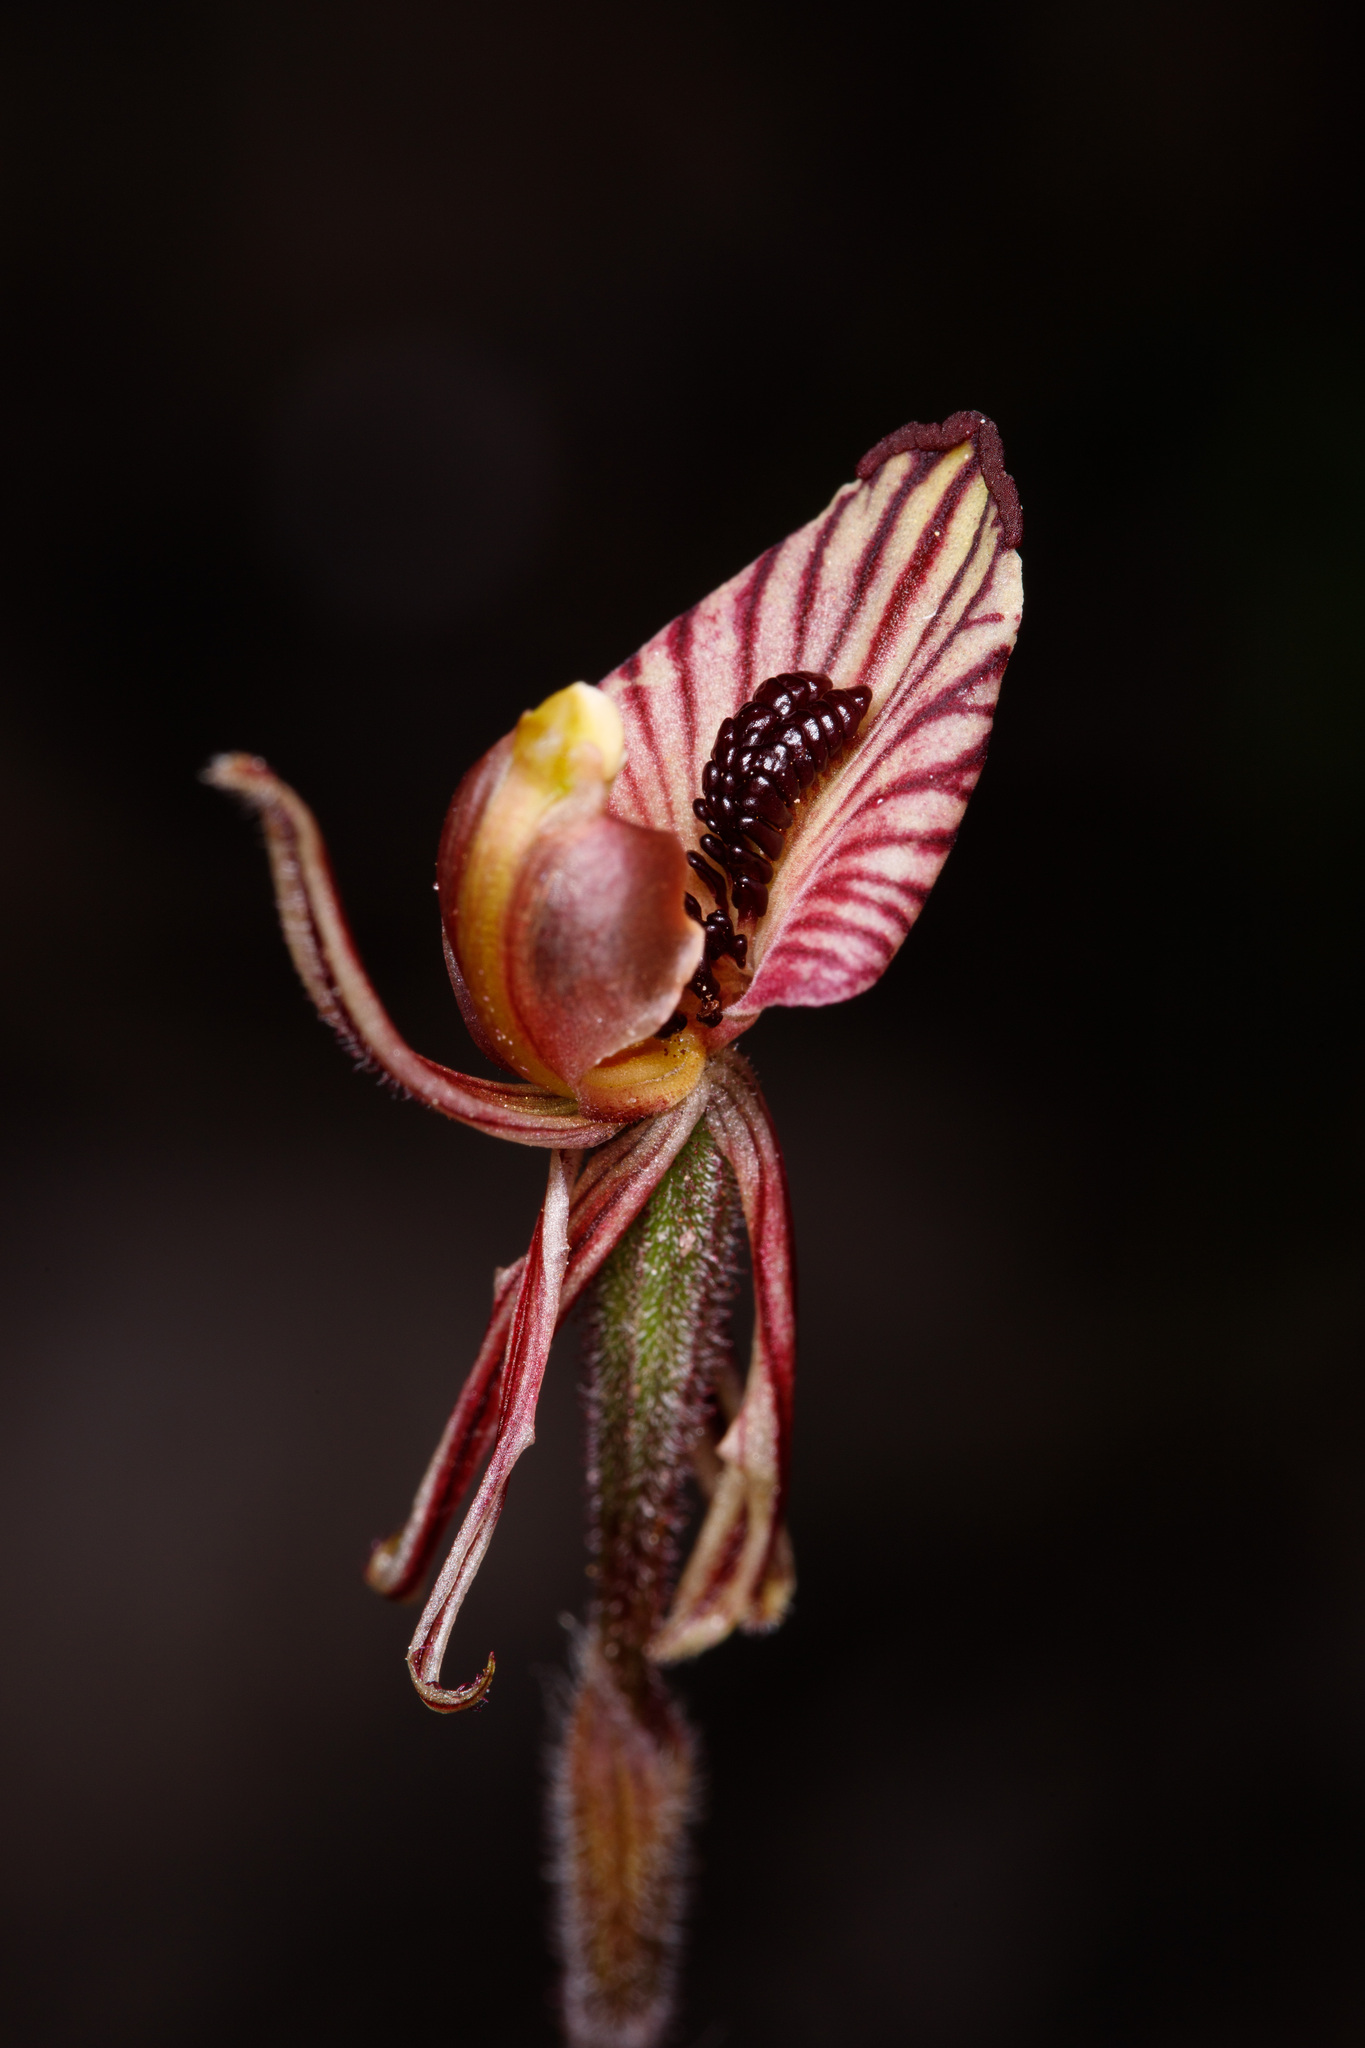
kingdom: Plantae
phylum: Tracheophyta
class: Liliopsida
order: Asparagales
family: Orchidaceae
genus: Caladenia
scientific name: Caladenia cairnsiana
